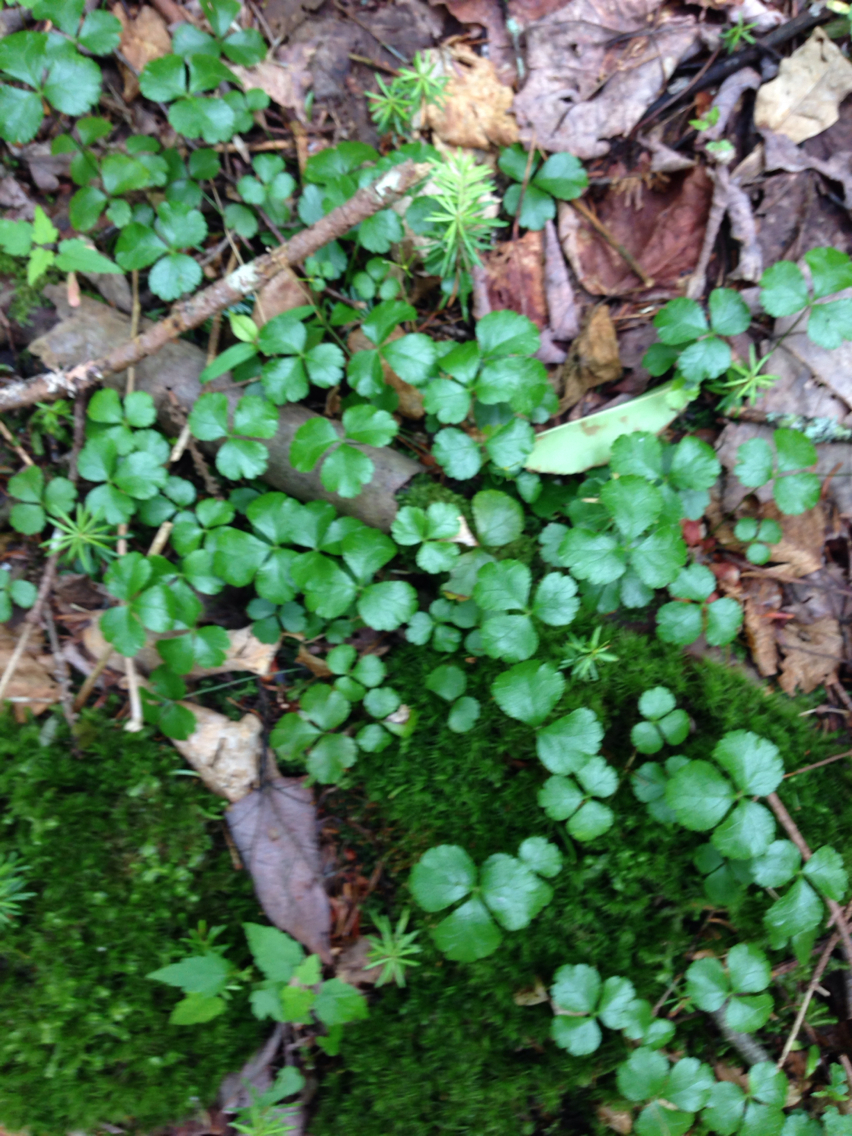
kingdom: Plantae
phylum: Tracheophyta
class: Magnoliopsida
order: Ranunculales
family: Ranunculaceae
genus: Coptis
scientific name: Coptis trifolia
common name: Canker-root
